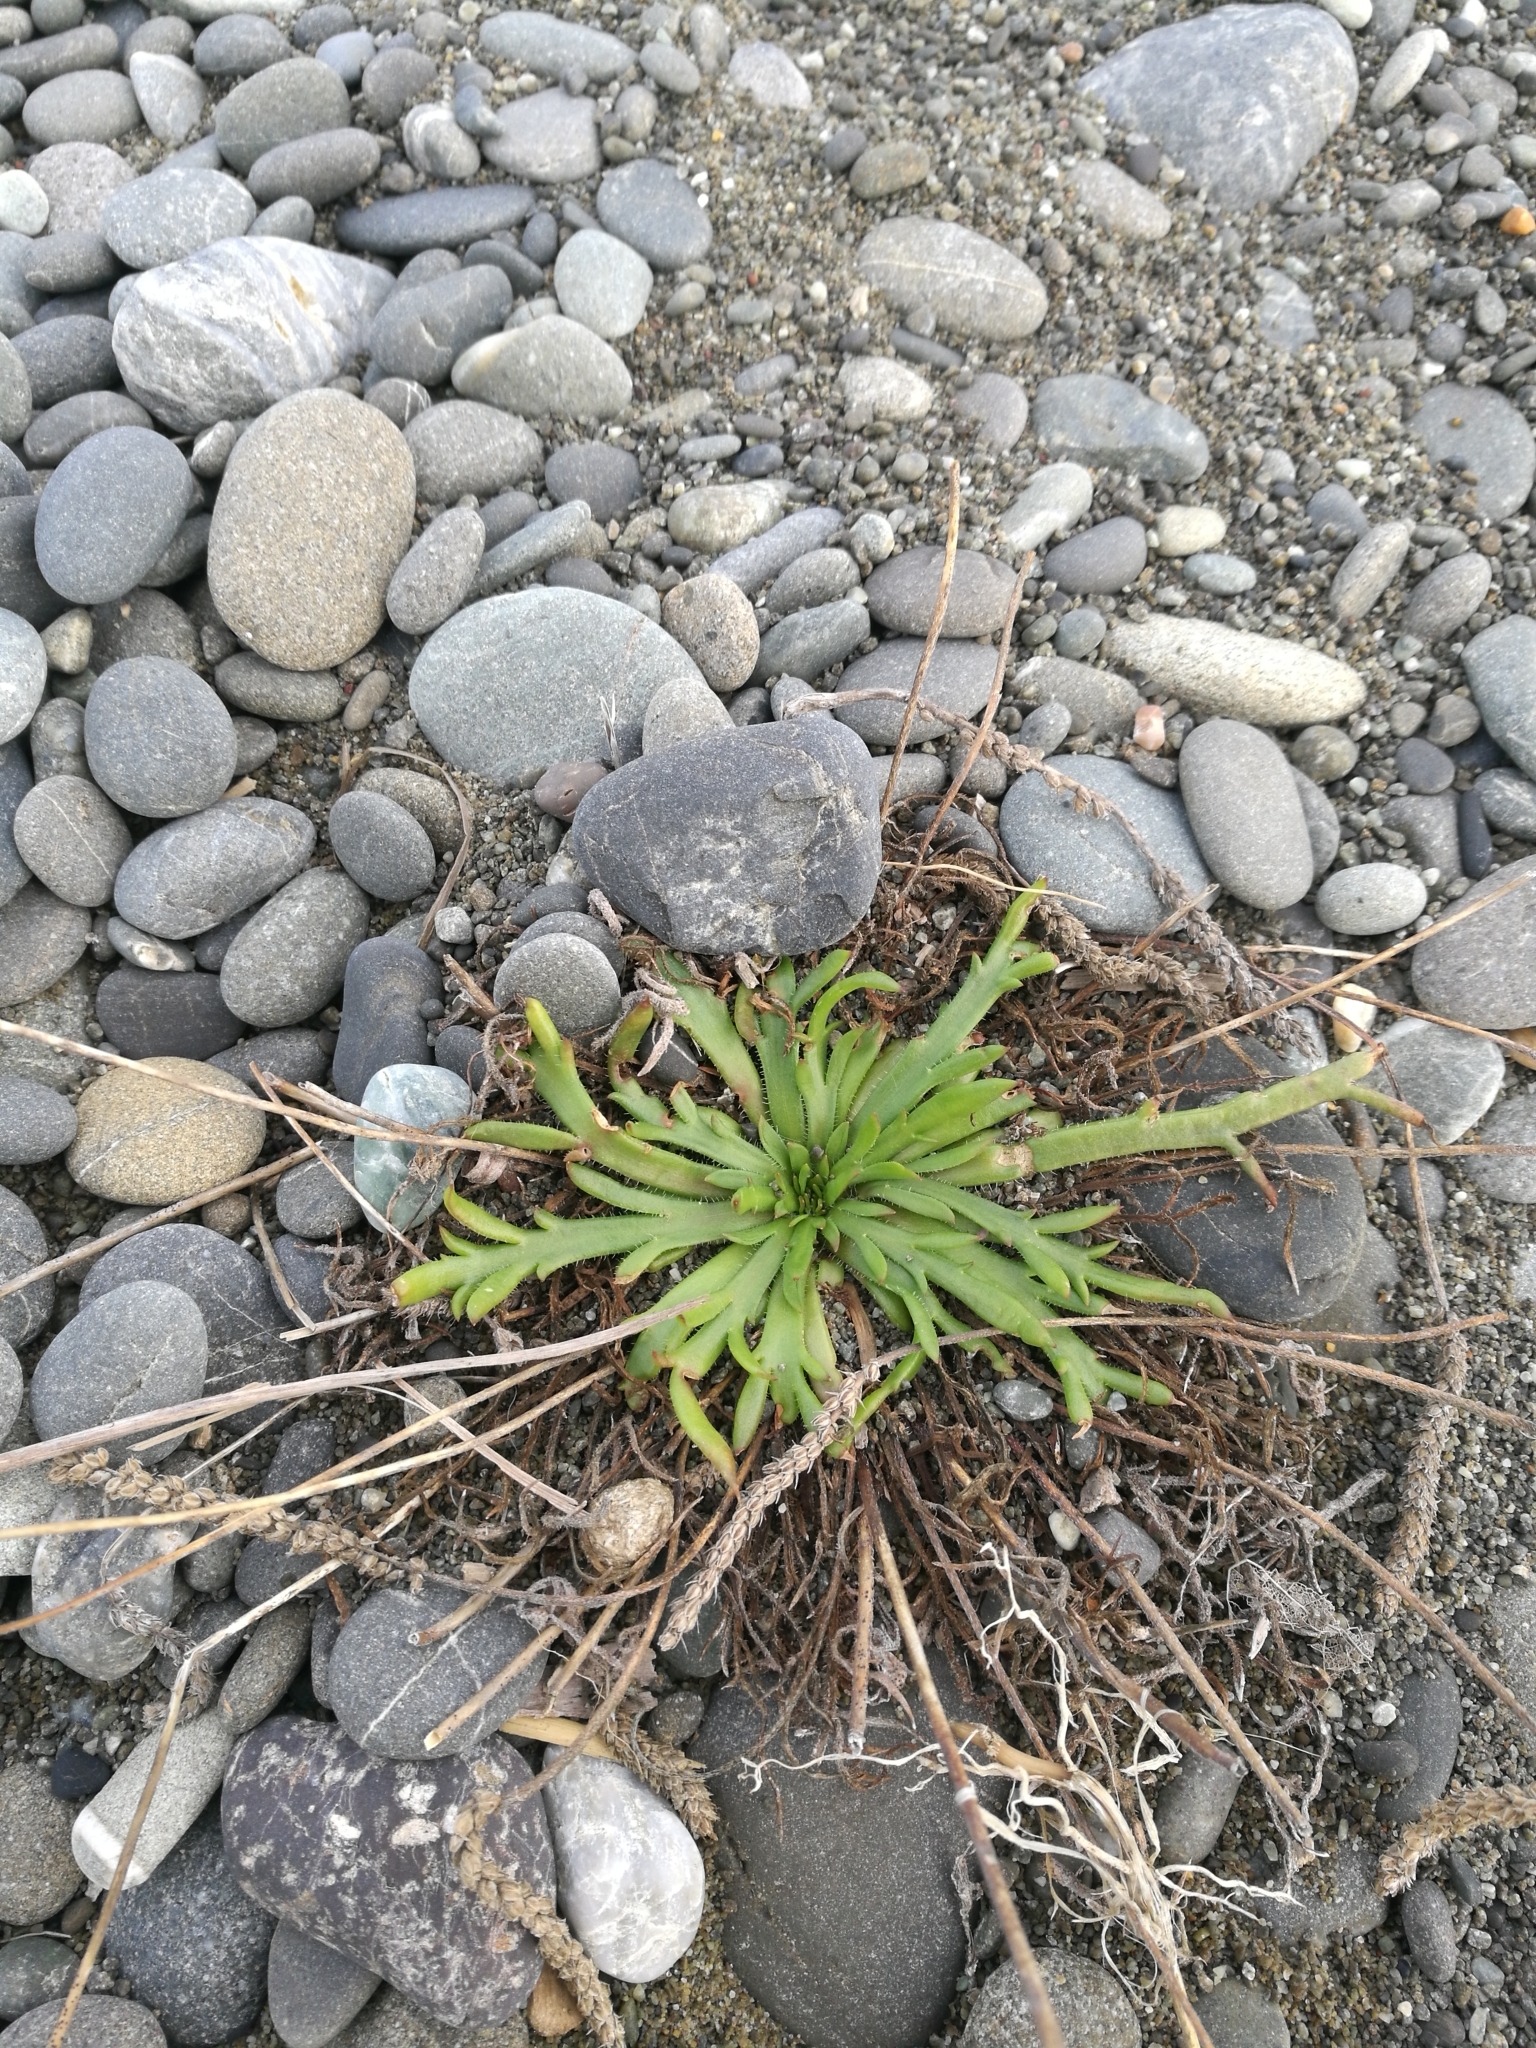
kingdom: Plantae
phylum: Tracheophyta
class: Magnoliopsida
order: Lamiales
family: Plantaginaceae
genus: Plantago
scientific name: Plantago coronopus
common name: Buck's-horn plantain
